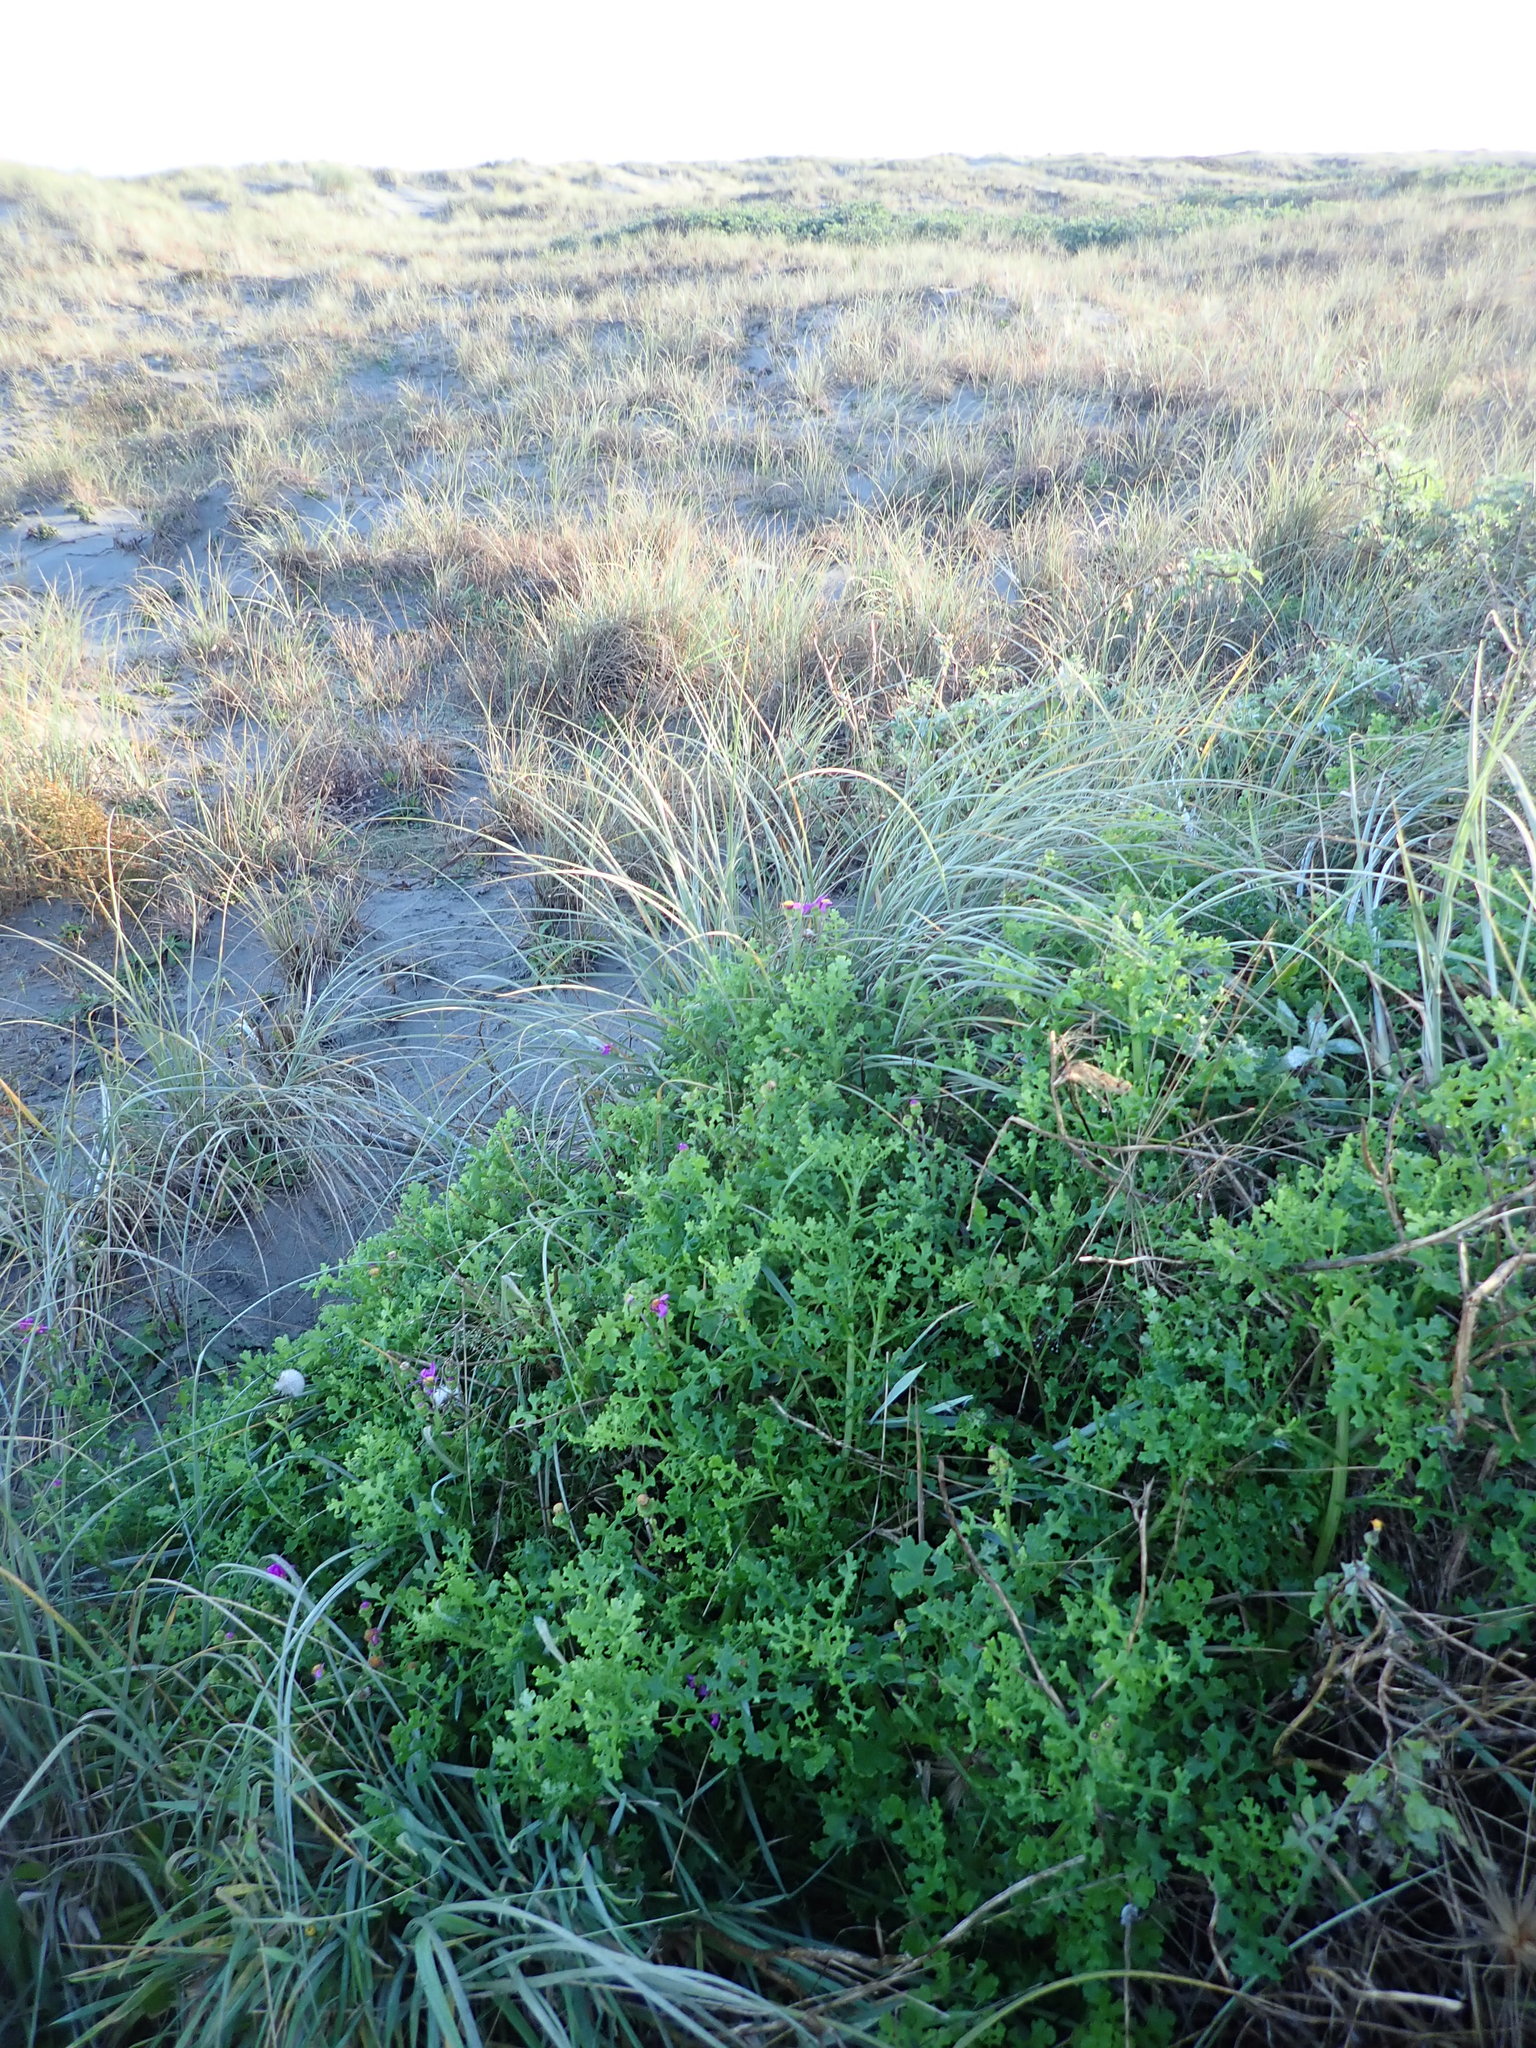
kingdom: Plantae
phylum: Tracheophyta
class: Magnoliopsida
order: Asterales
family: Asteraceae
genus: Senecio
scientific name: Senecio elegans
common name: Purple groundsel
